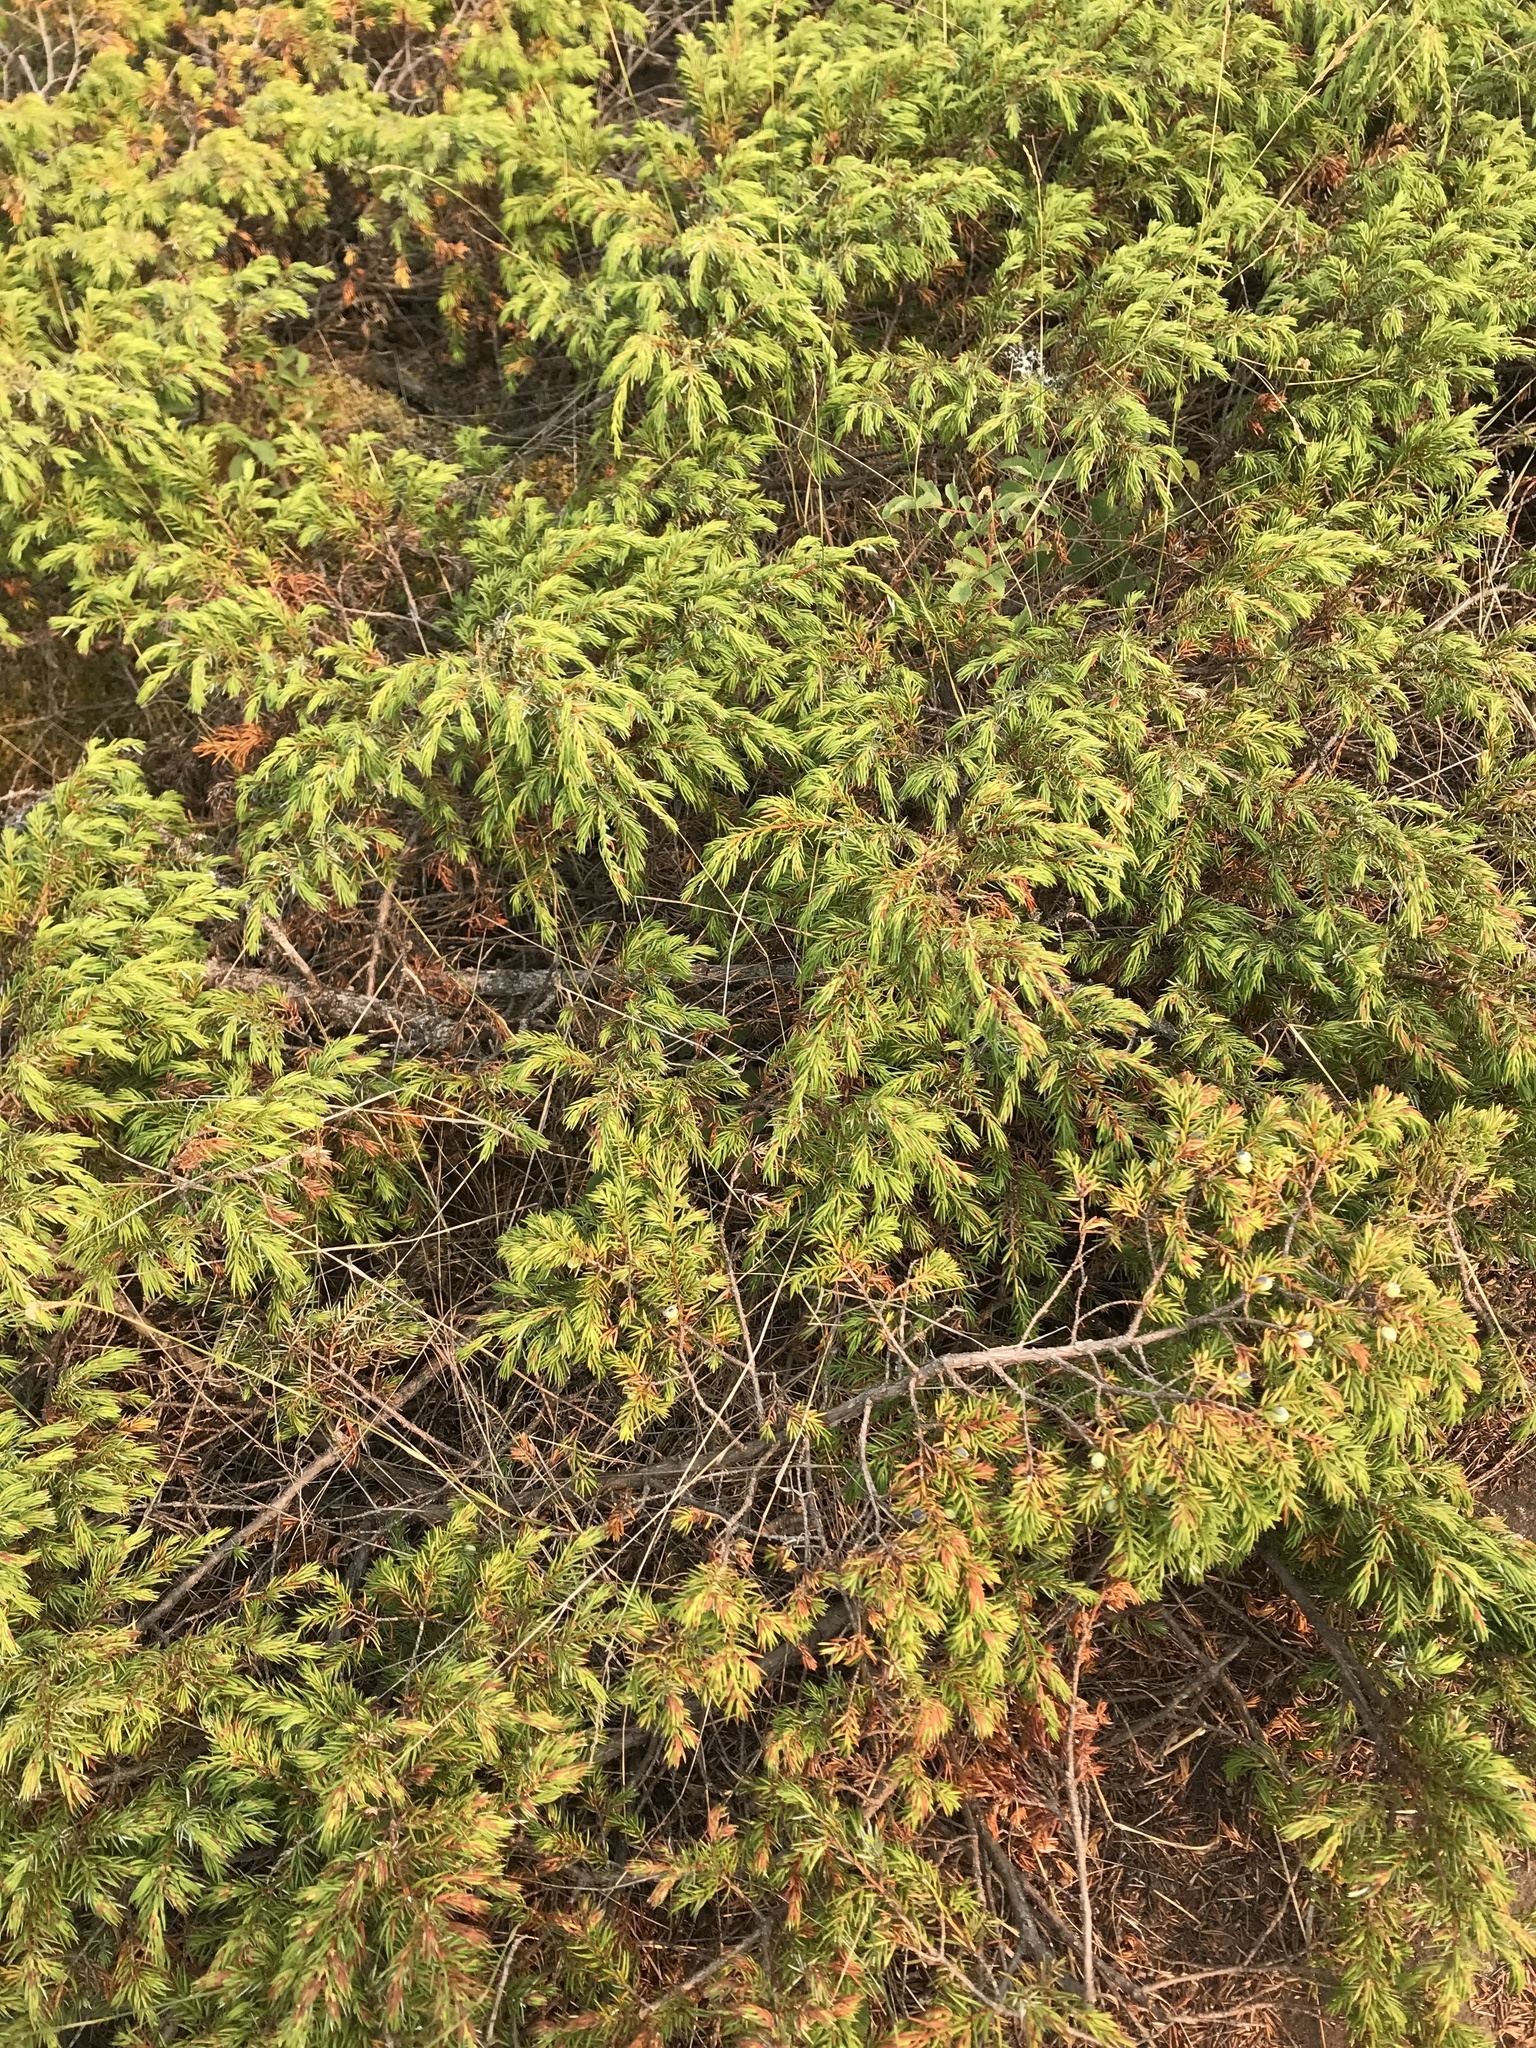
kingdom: Plantae
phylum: Tracheophyta
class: Pinopsida
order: Pinales
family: Cupressaceae
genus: Juniperus
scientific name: Juniperus communis
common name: Common juniper
